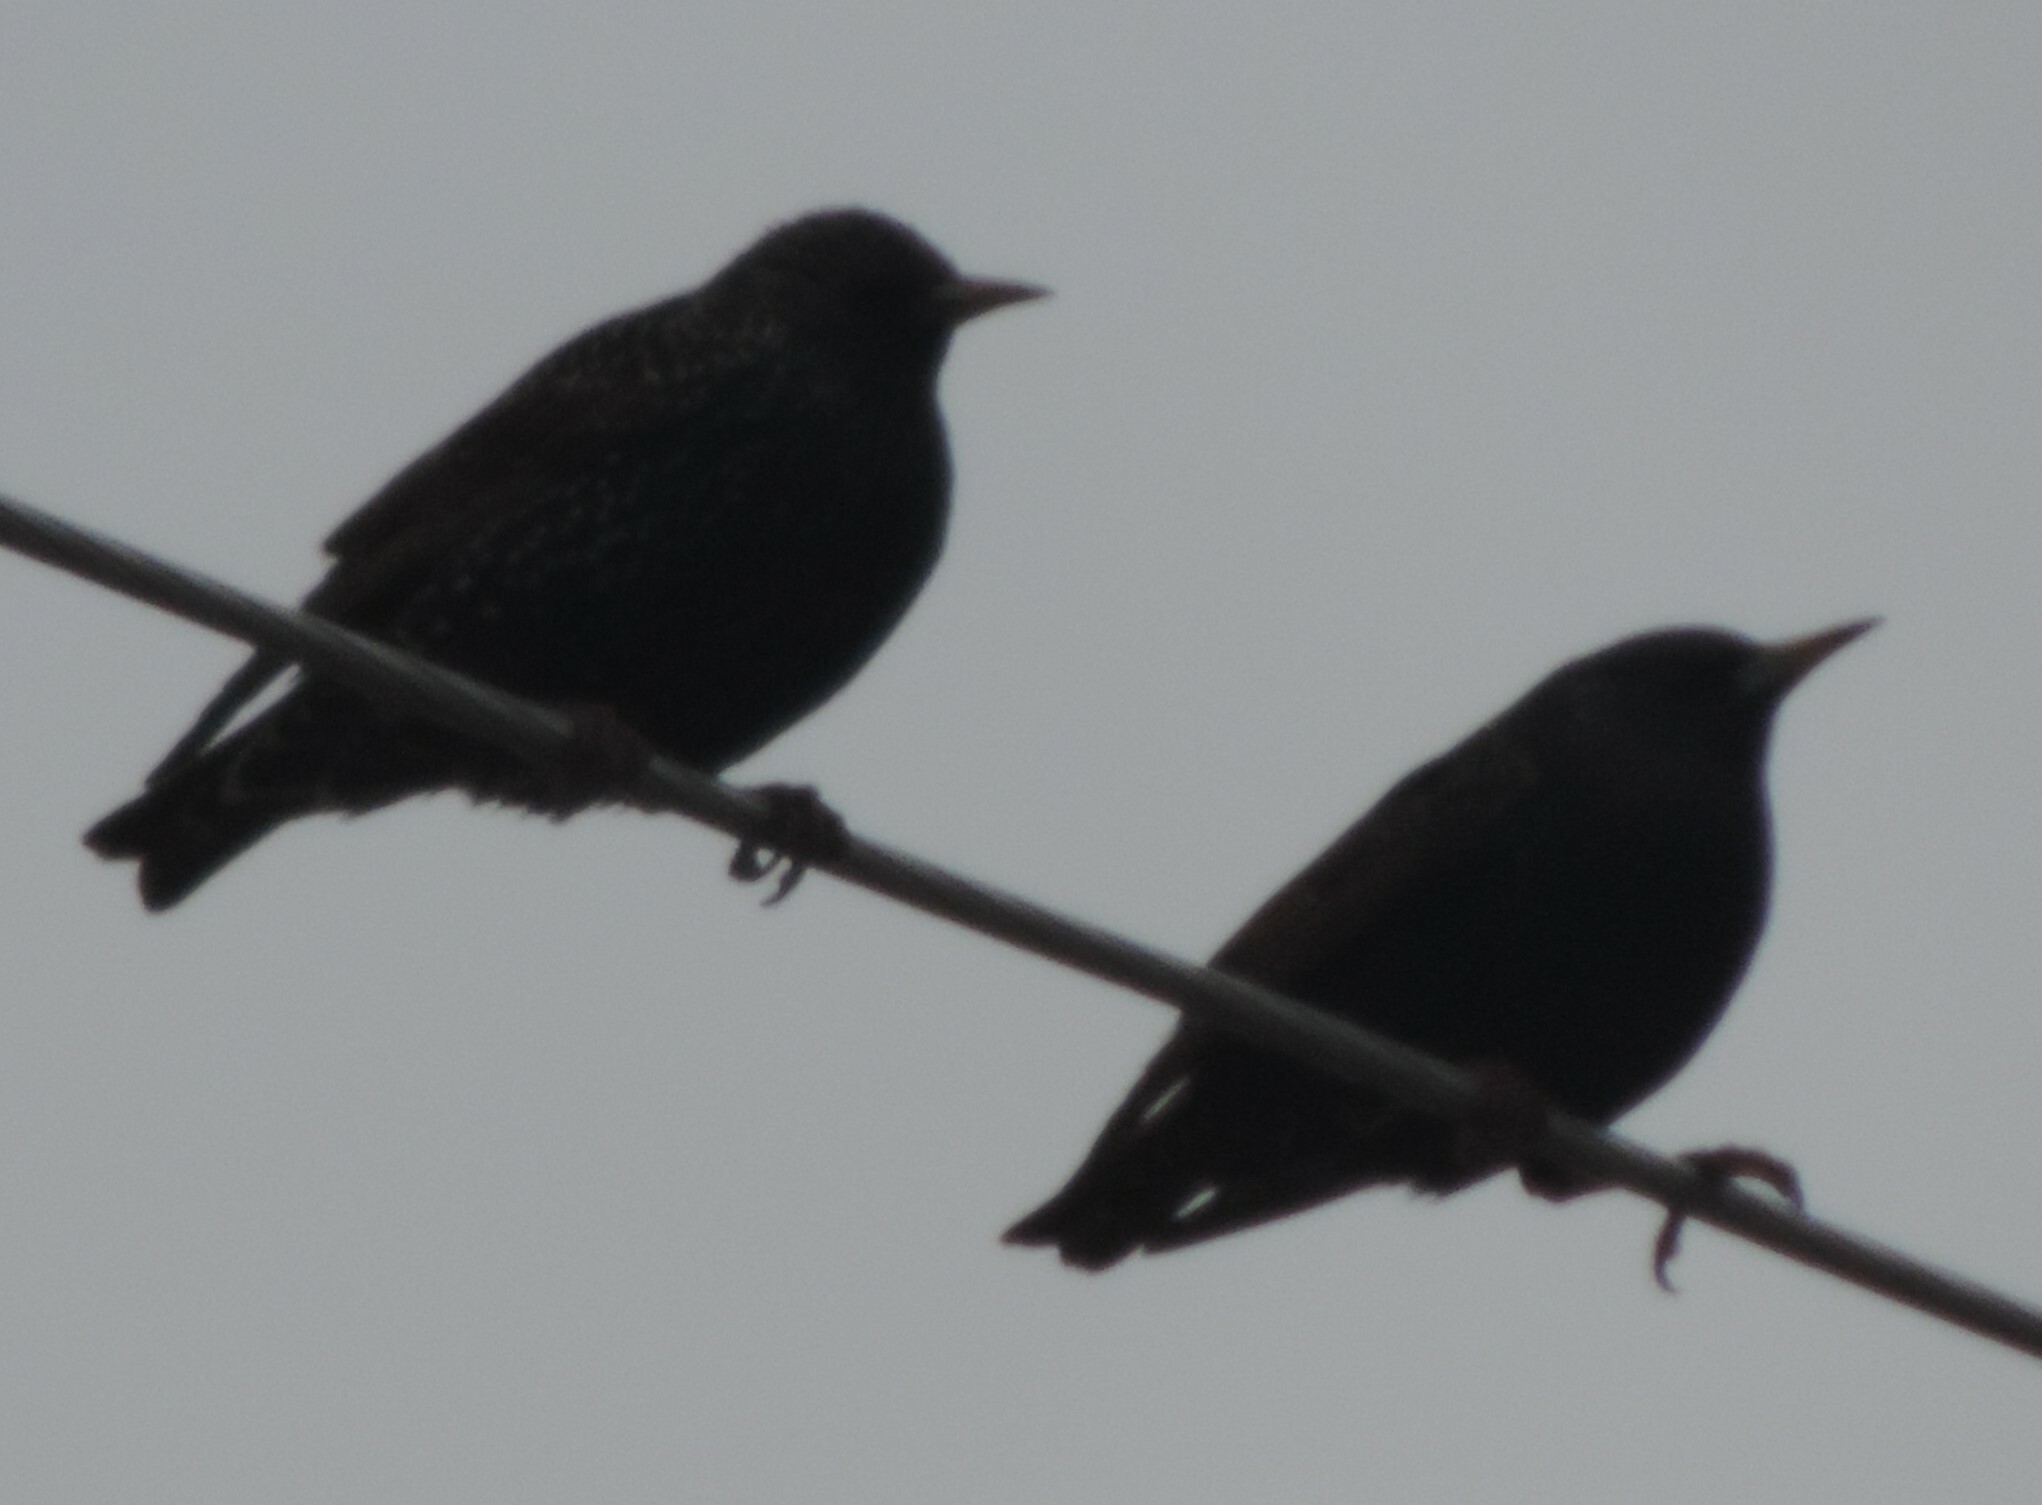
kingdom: Animalia
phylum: Chordata
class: Aves
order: Passeriformes
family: Sturnidae
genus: Sturnus
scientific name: Sturnus vulgaris
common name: Common starling
